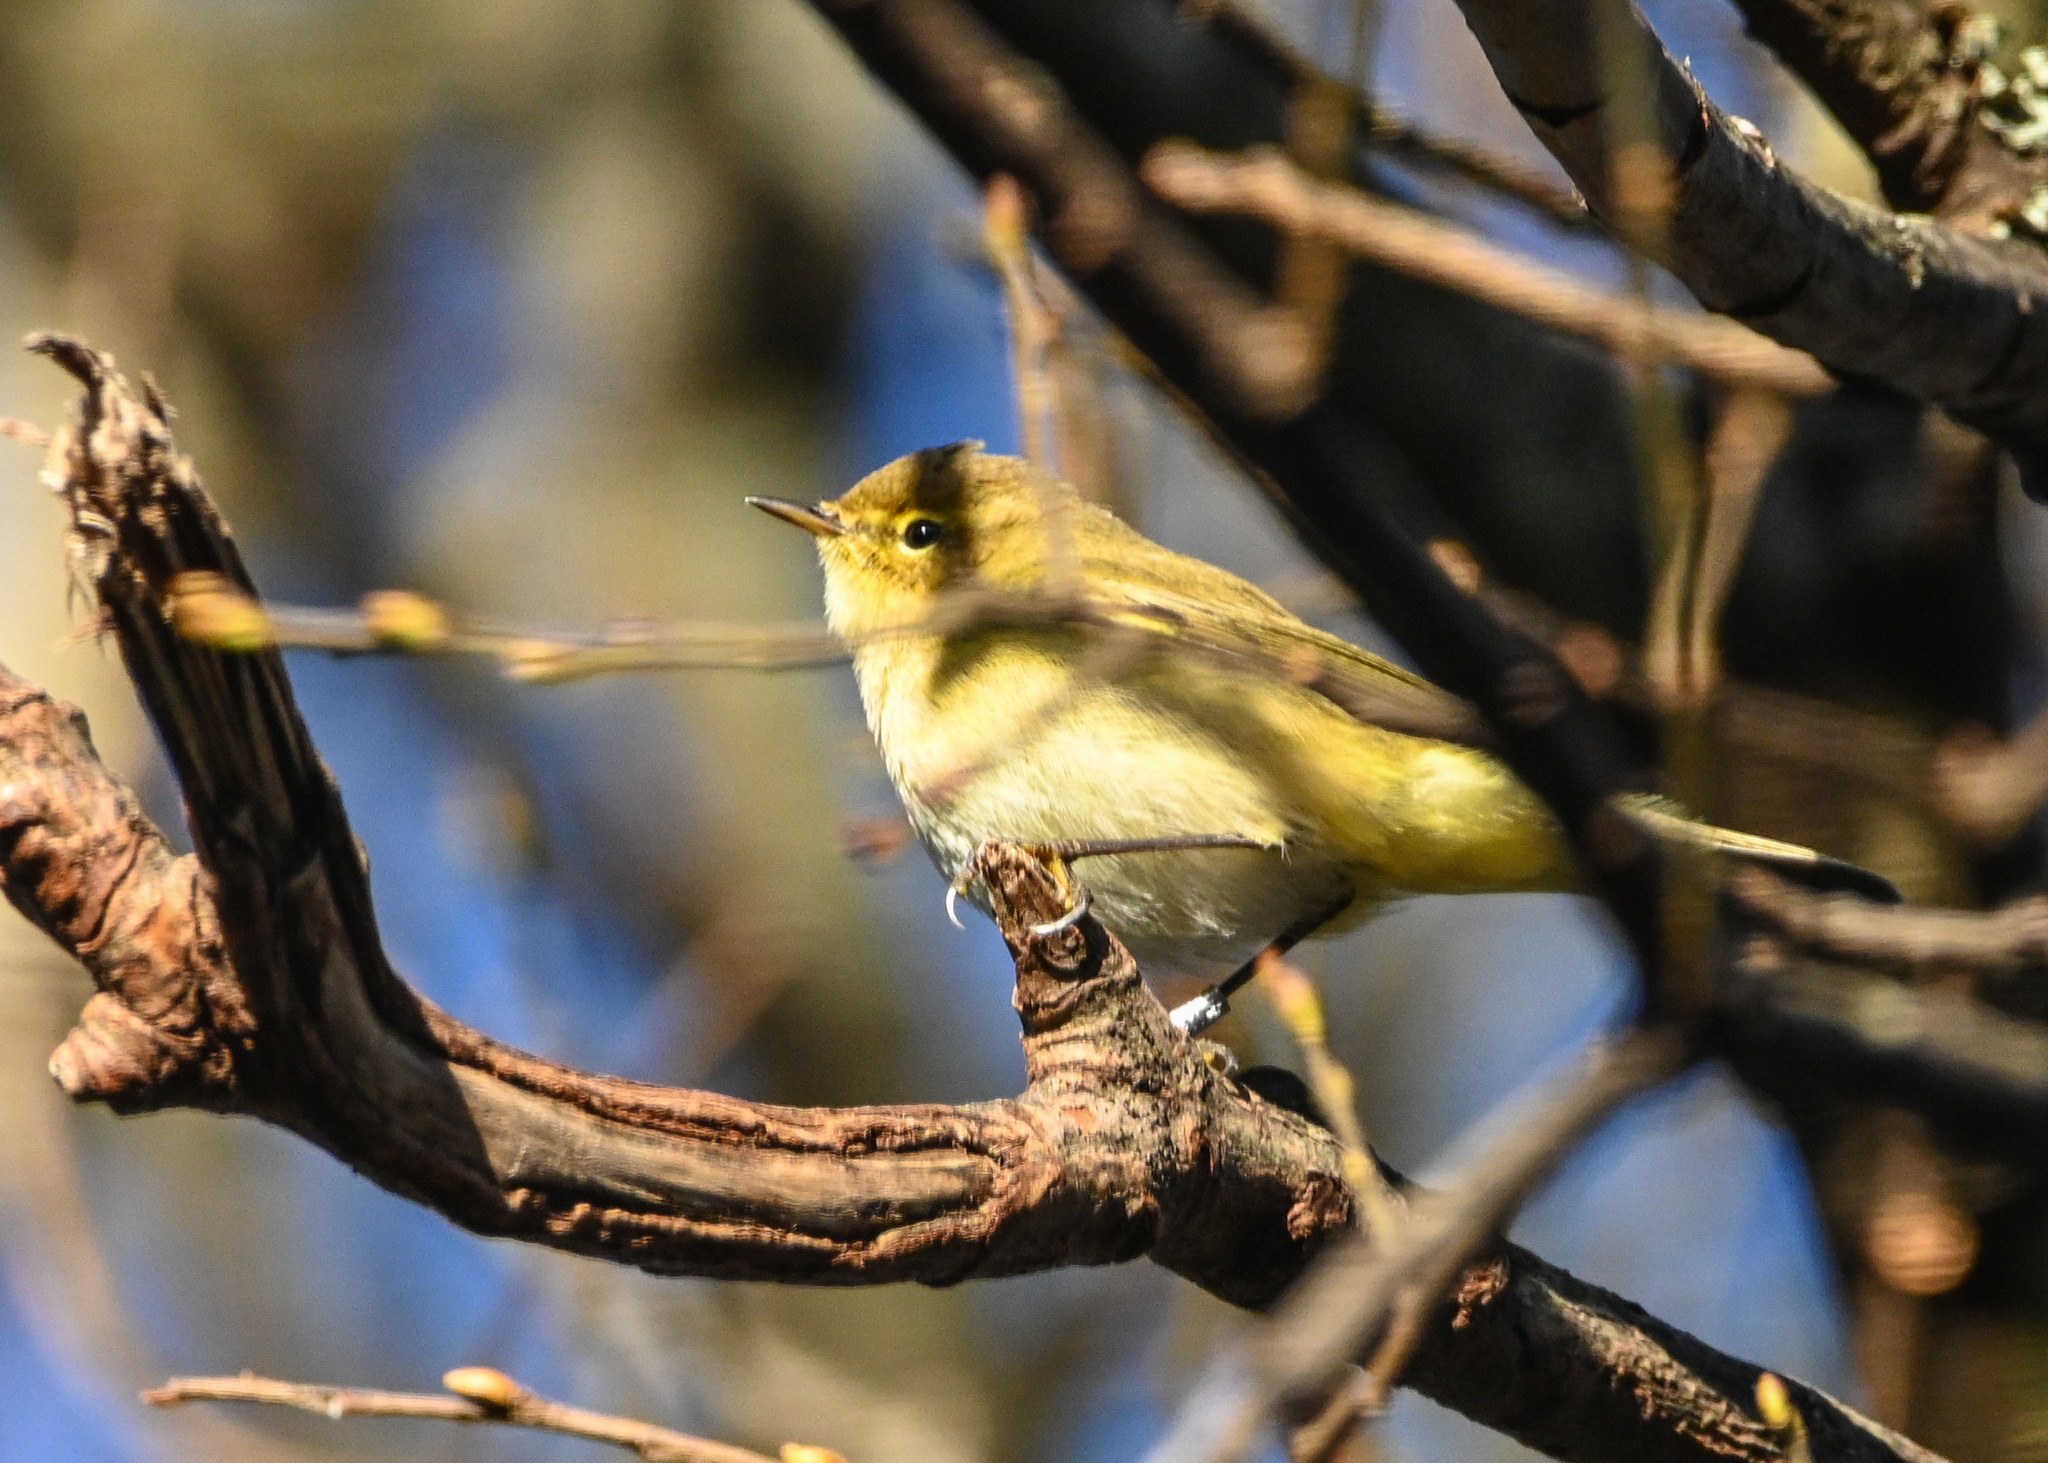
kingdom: Animalia
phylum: Chordata
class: Aves
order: Passeriformes
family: Phylloscopidae
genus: Phylloscopus
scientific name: Phylloscopus collybita
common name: Common chiffchaff
